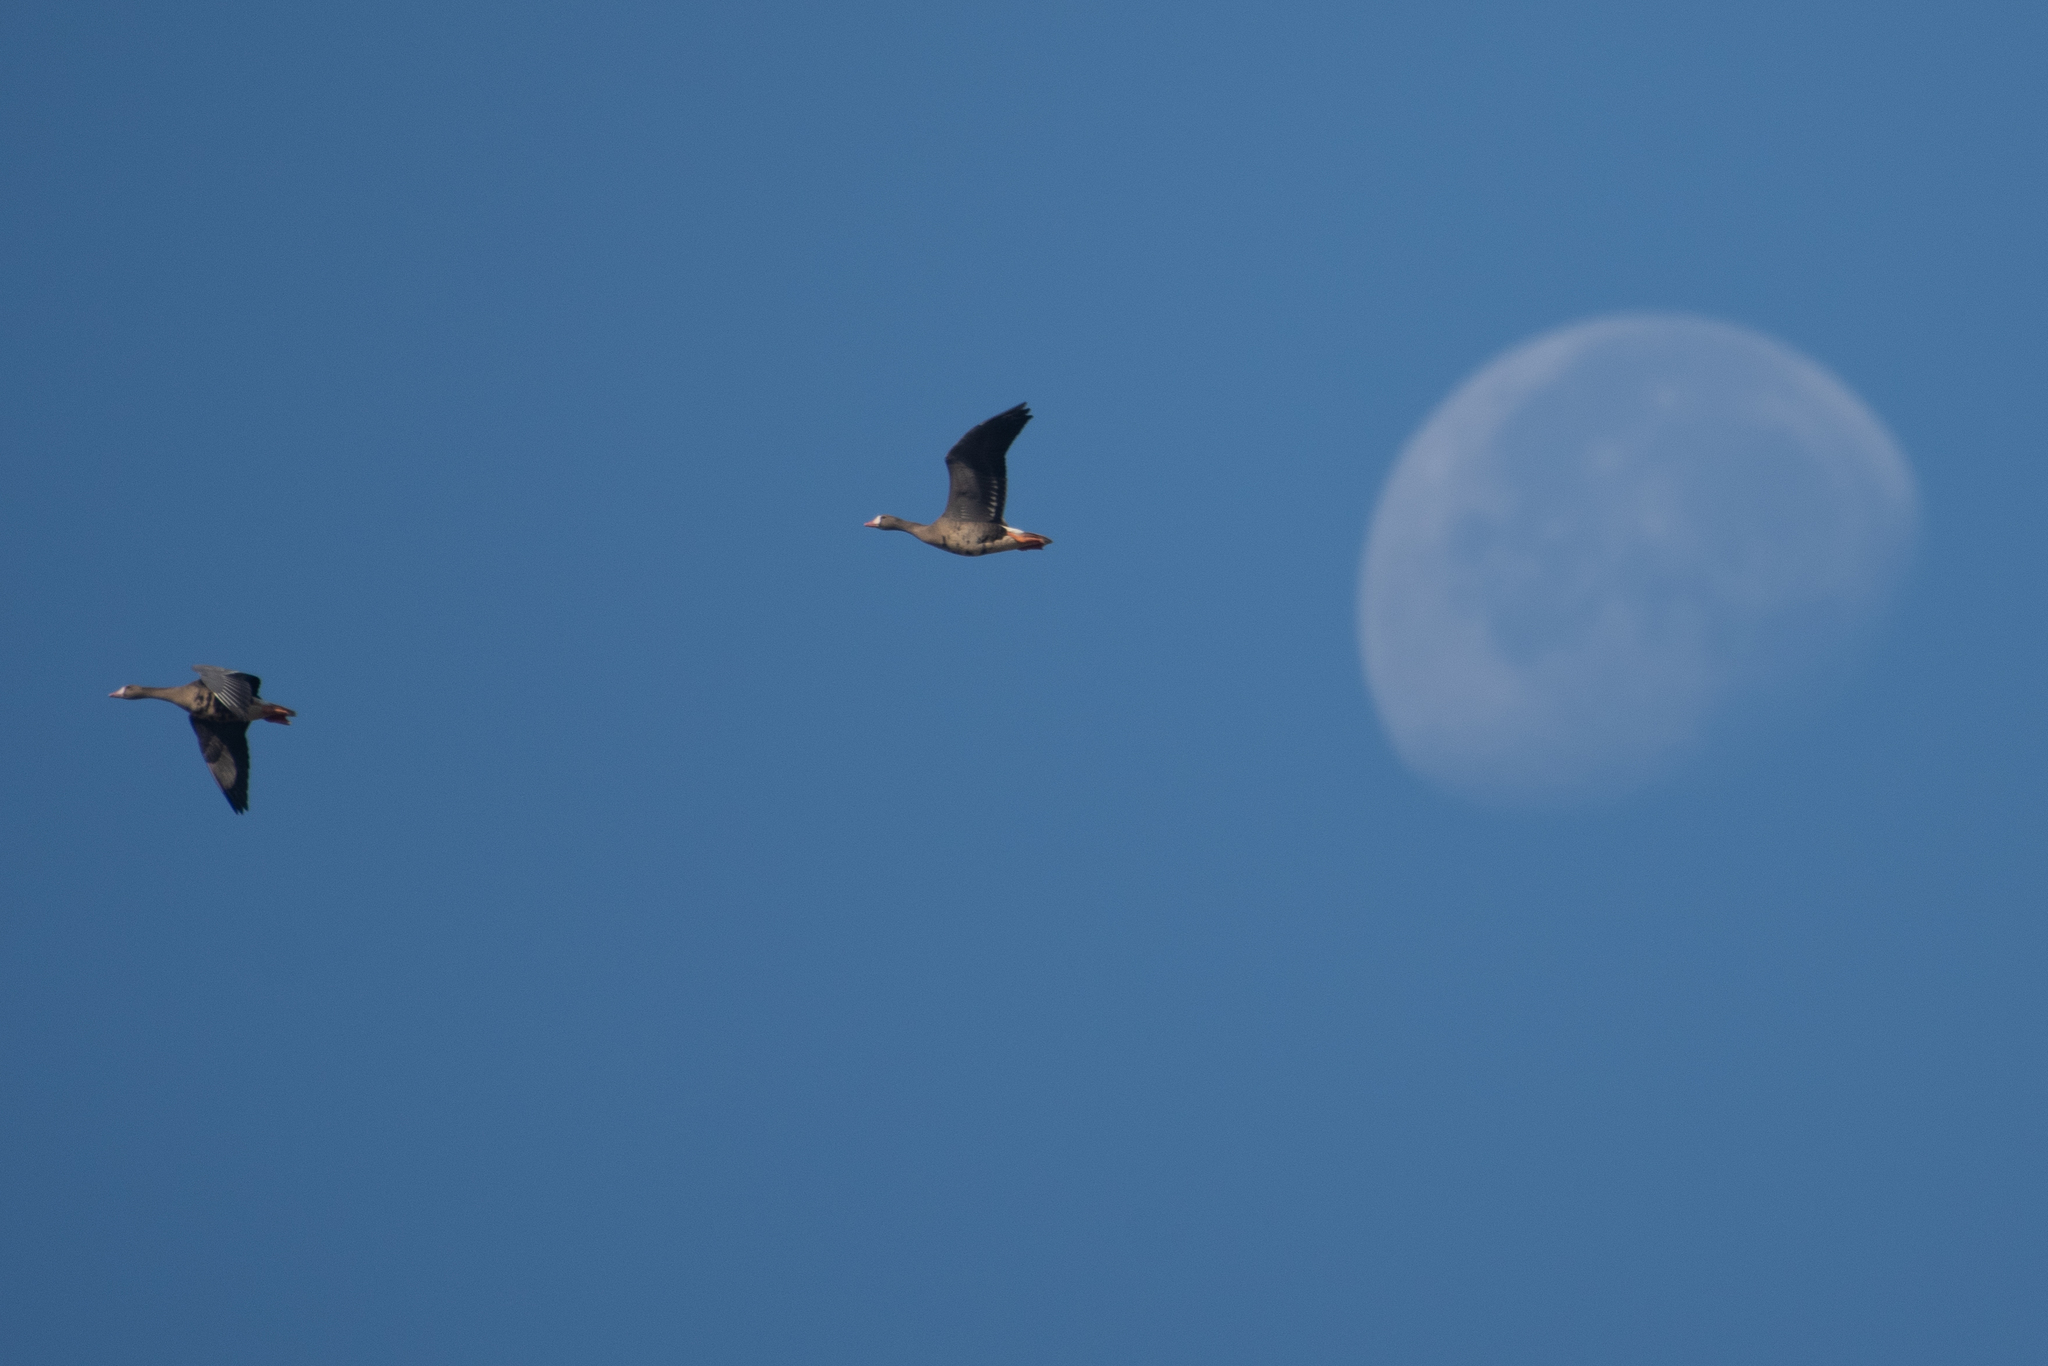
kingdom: Animalia
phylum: Chordata
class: Aves
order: Anseriformes
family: Anatidae
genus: Anser
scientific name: Anser albifrons
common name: Greater white-fronted goose
